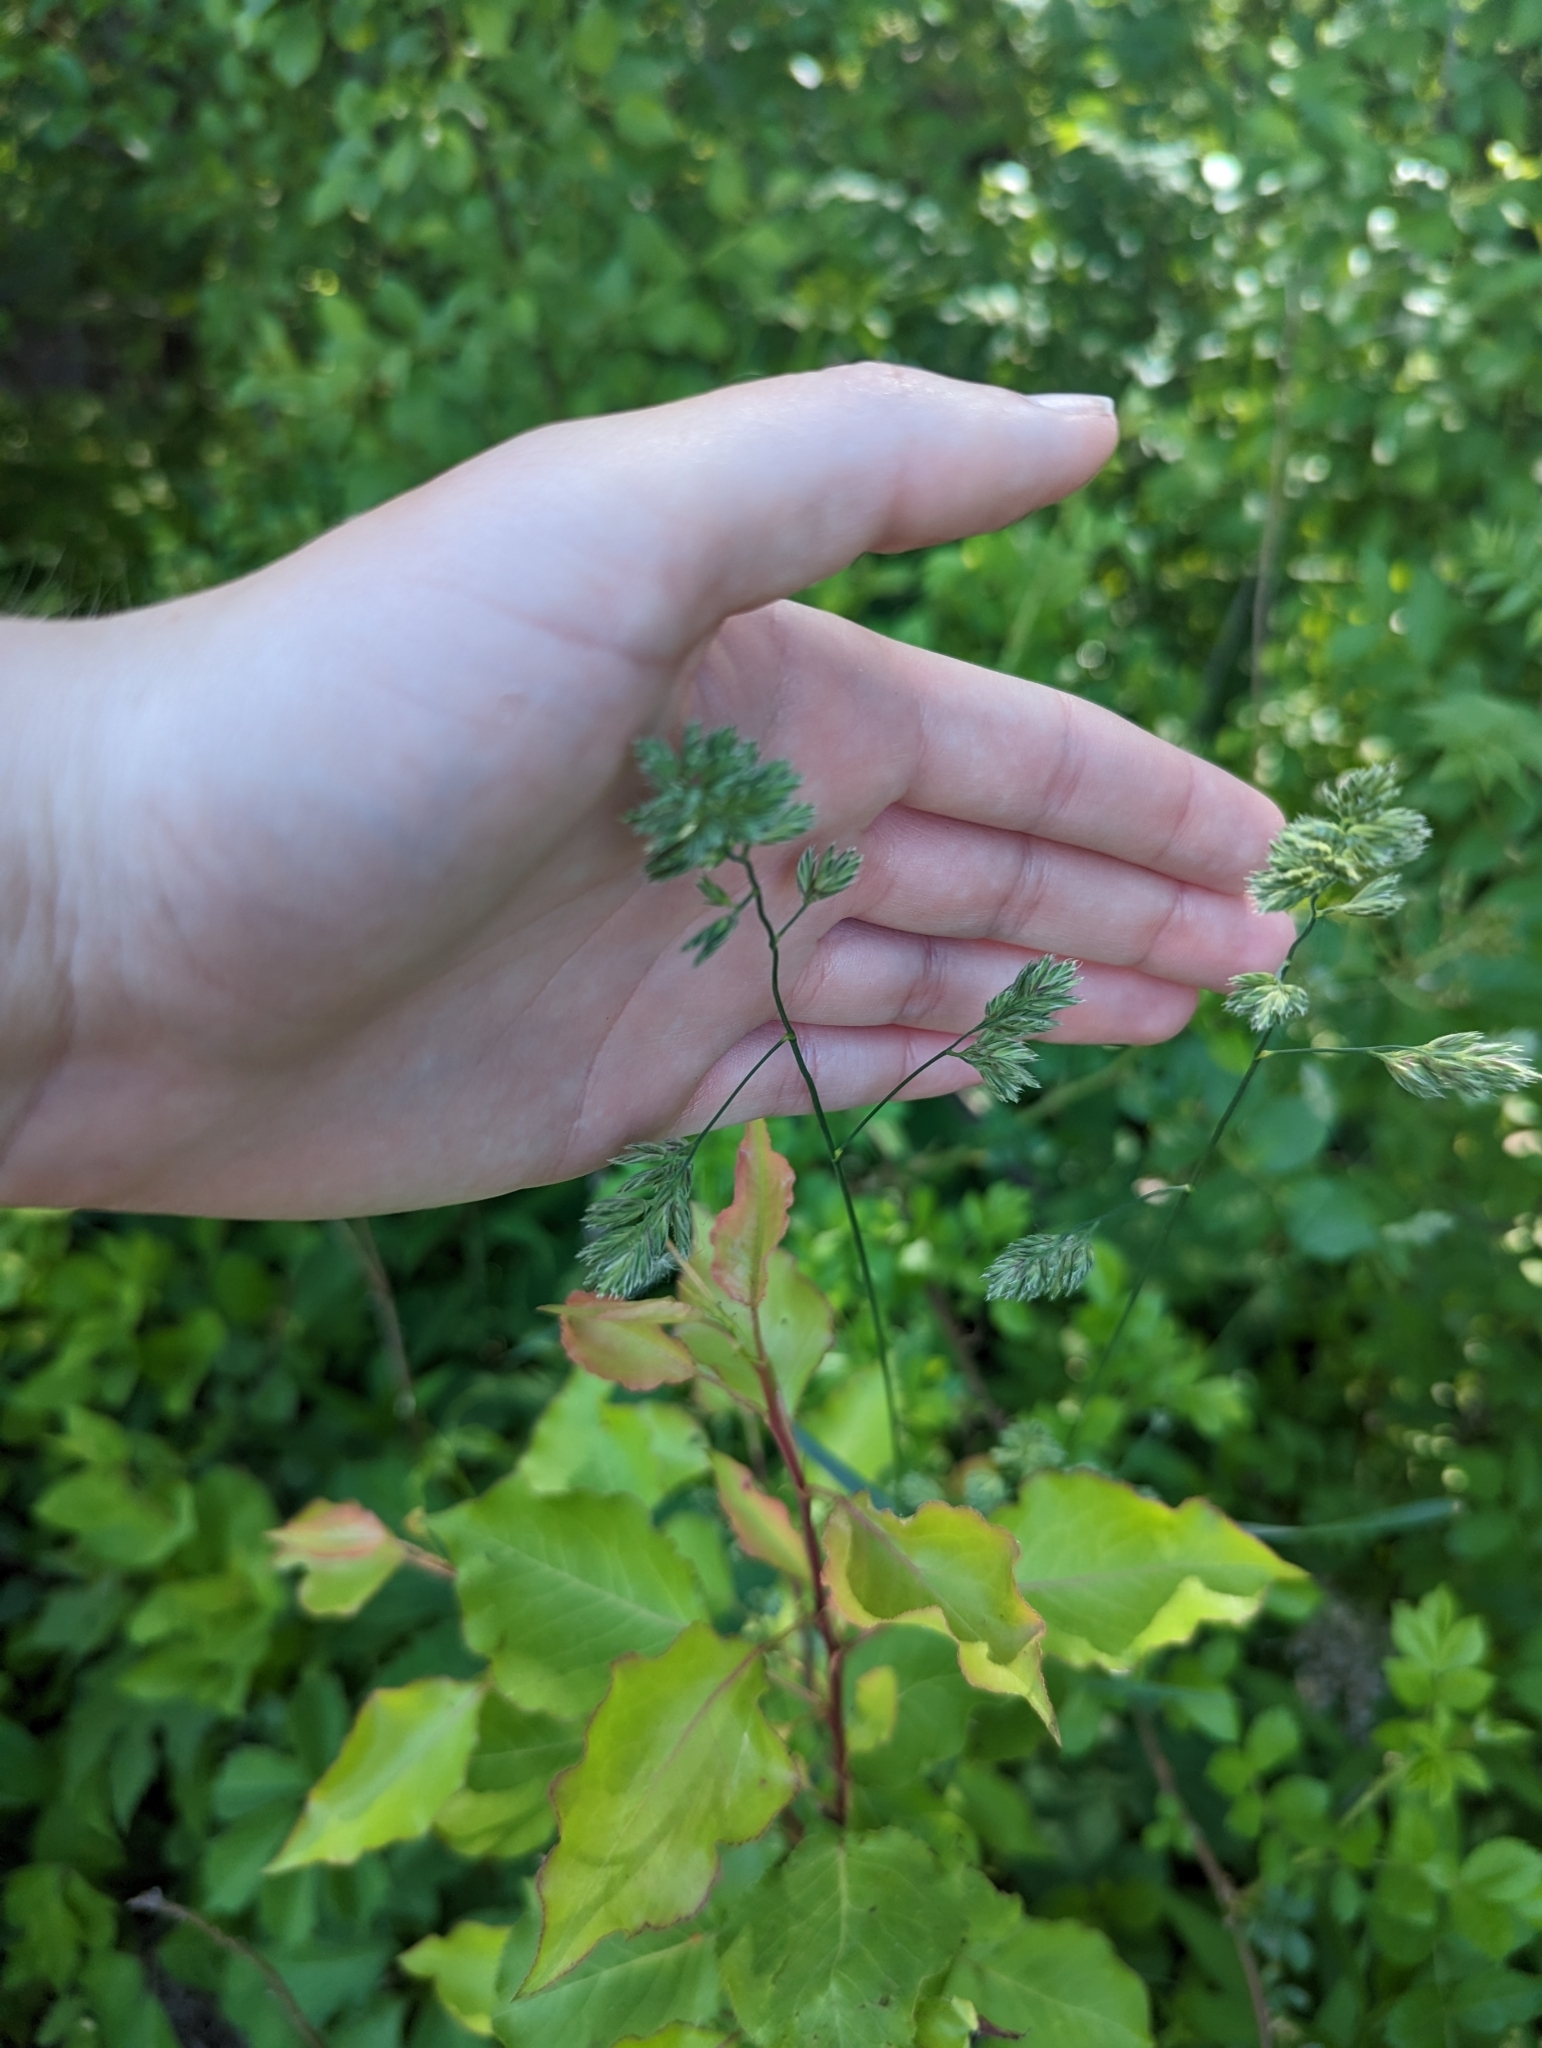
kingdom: Plantae
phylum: Tracheophyta
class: Liliopsida
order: Poales
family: Poaceae
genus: Dactylis
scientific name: Dactylis glomerata
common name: Orchardgrass
